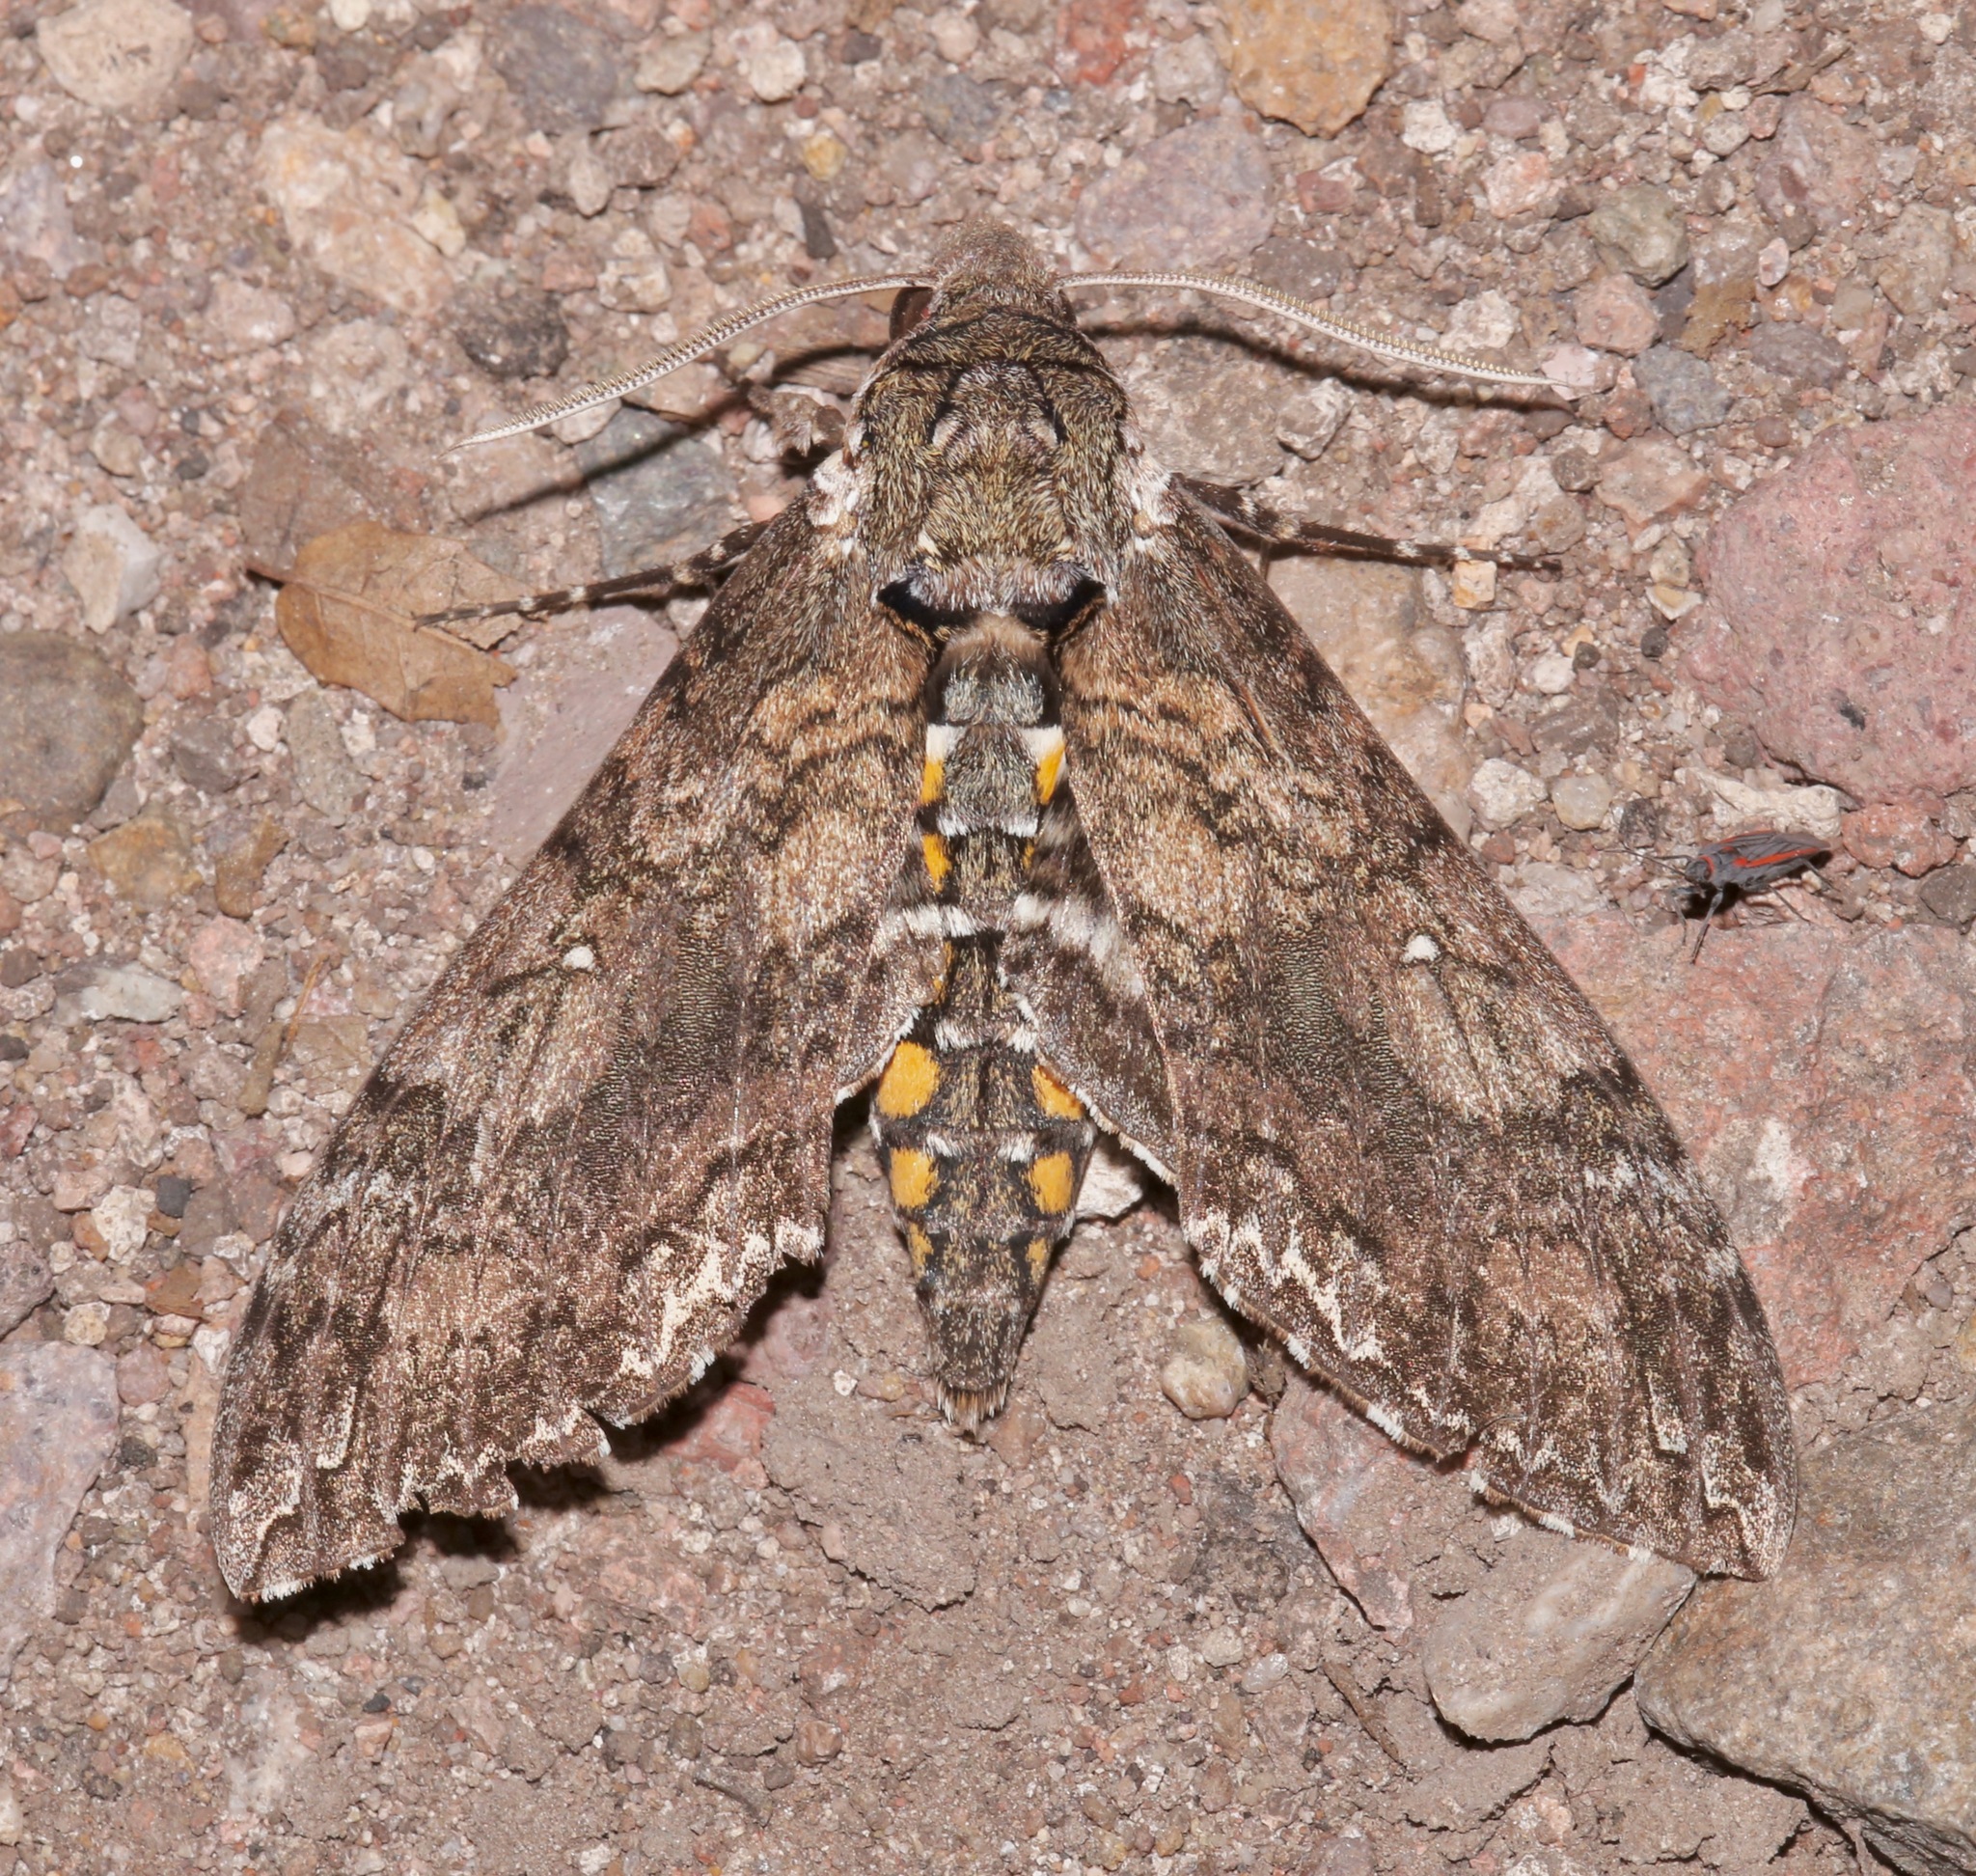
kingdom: Animalia
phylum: Arthropoda
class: Insecta
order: Lepidoptera
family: Sphingidae
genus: Manduca
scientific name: Manduca sexta
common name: Carolina sphinx
